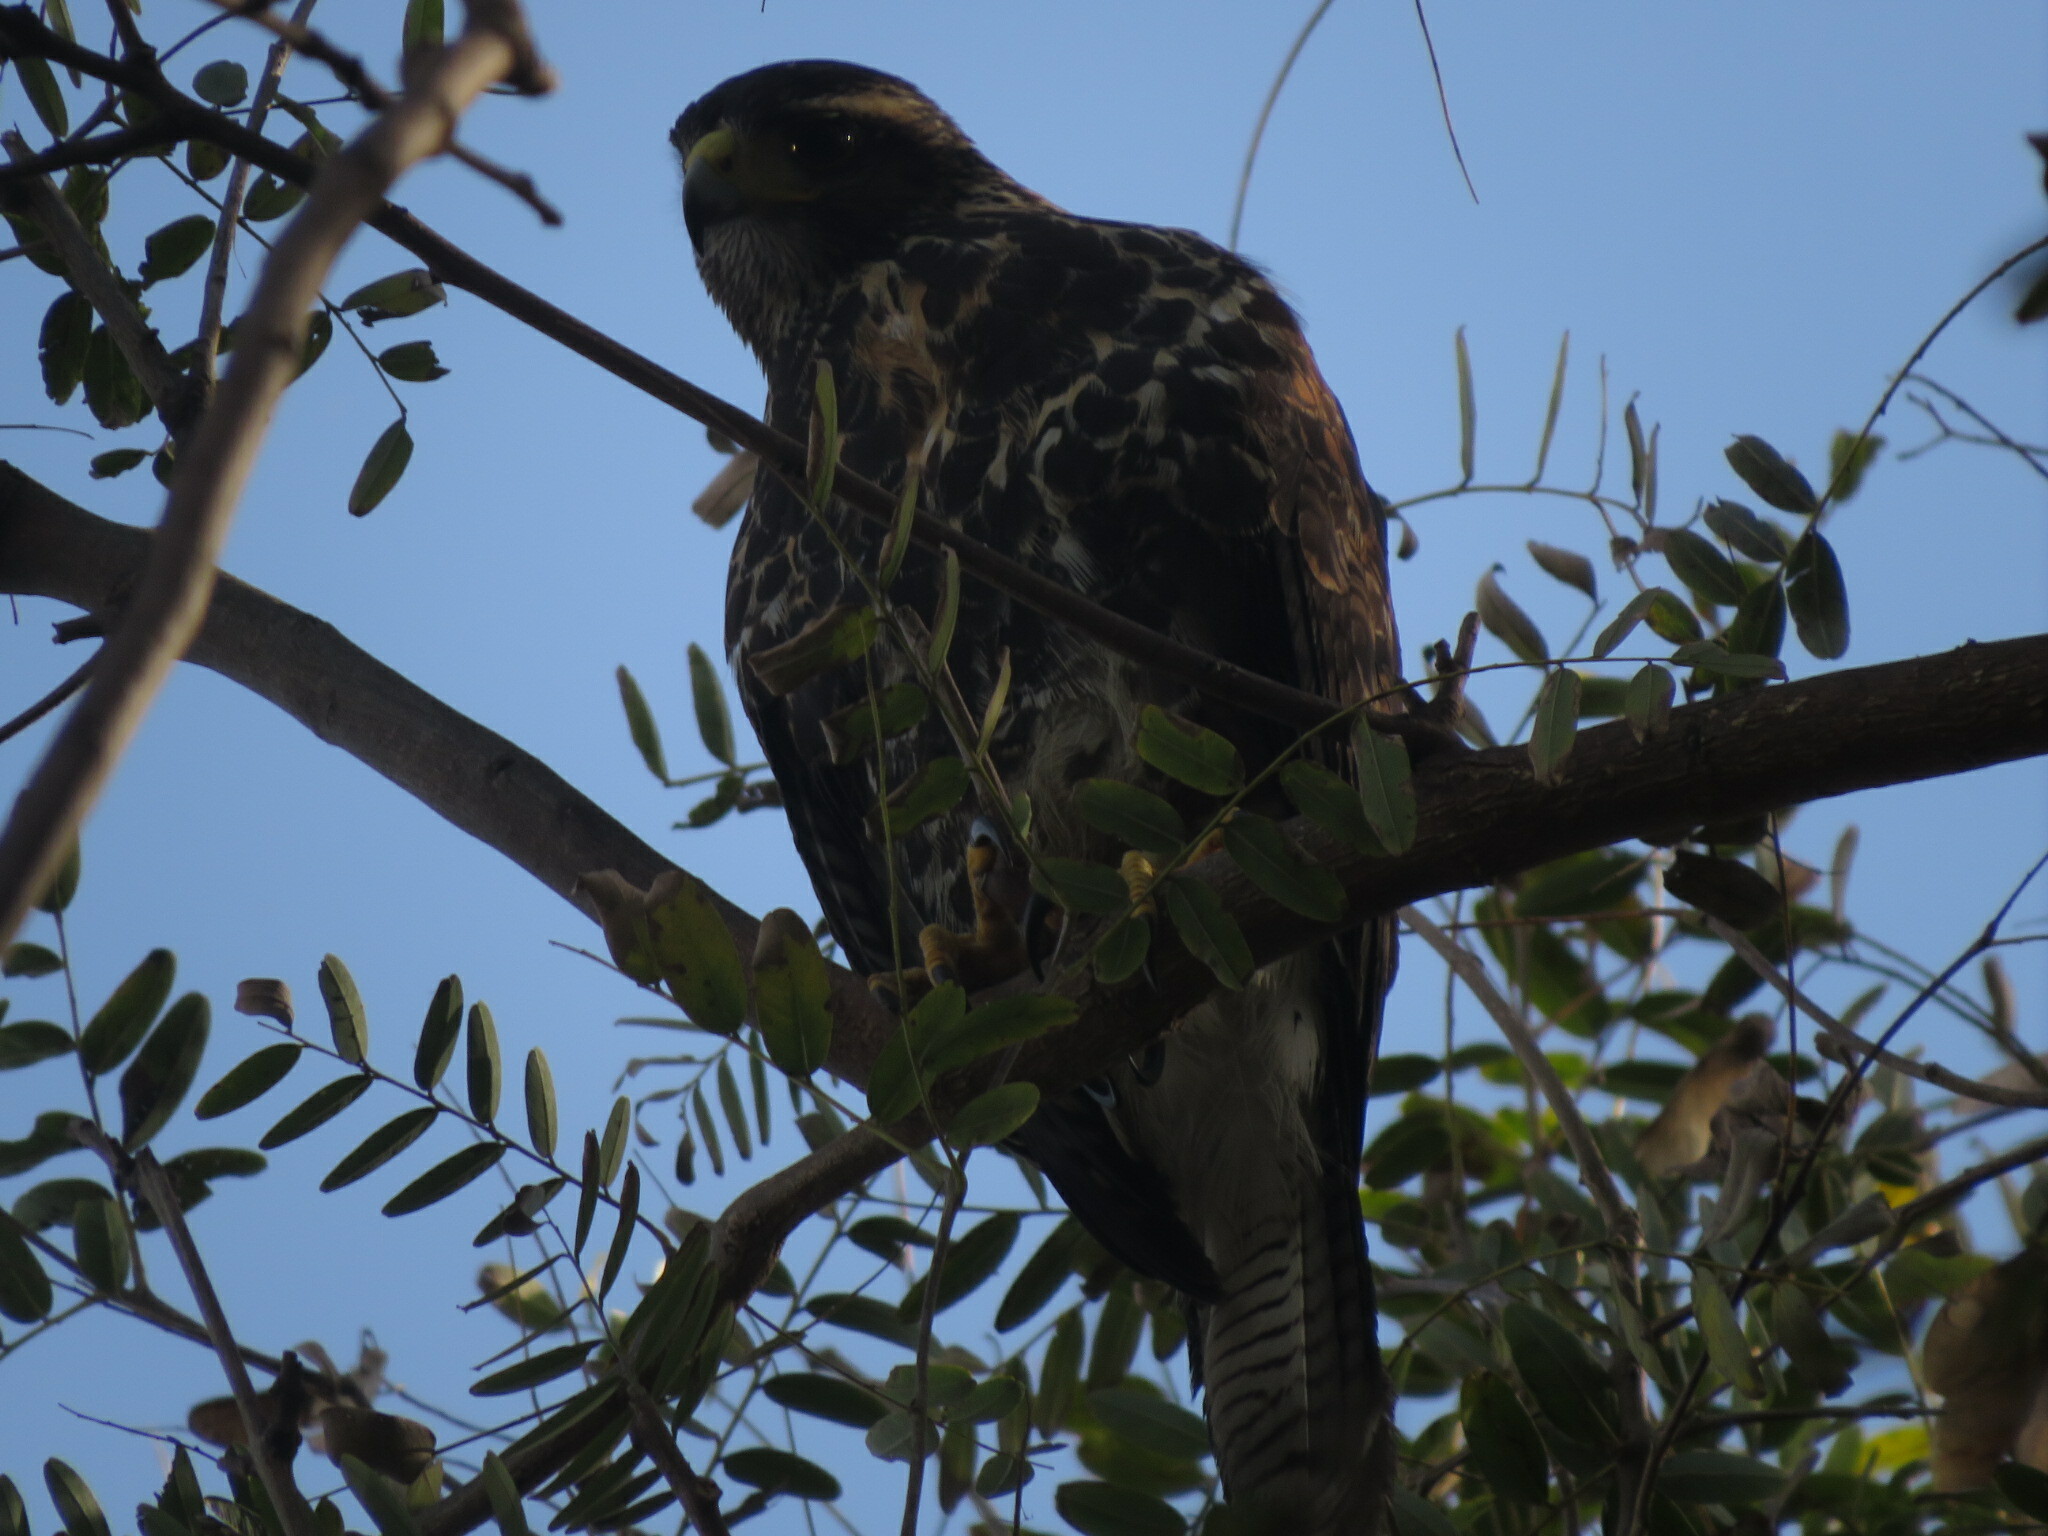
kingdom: Animalia
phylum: Chordata
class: Aves
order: Accipitriformes
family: Accipitridae
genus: Parabuteo
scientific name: Parabuteo unicinctus
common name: Harris's hawk
